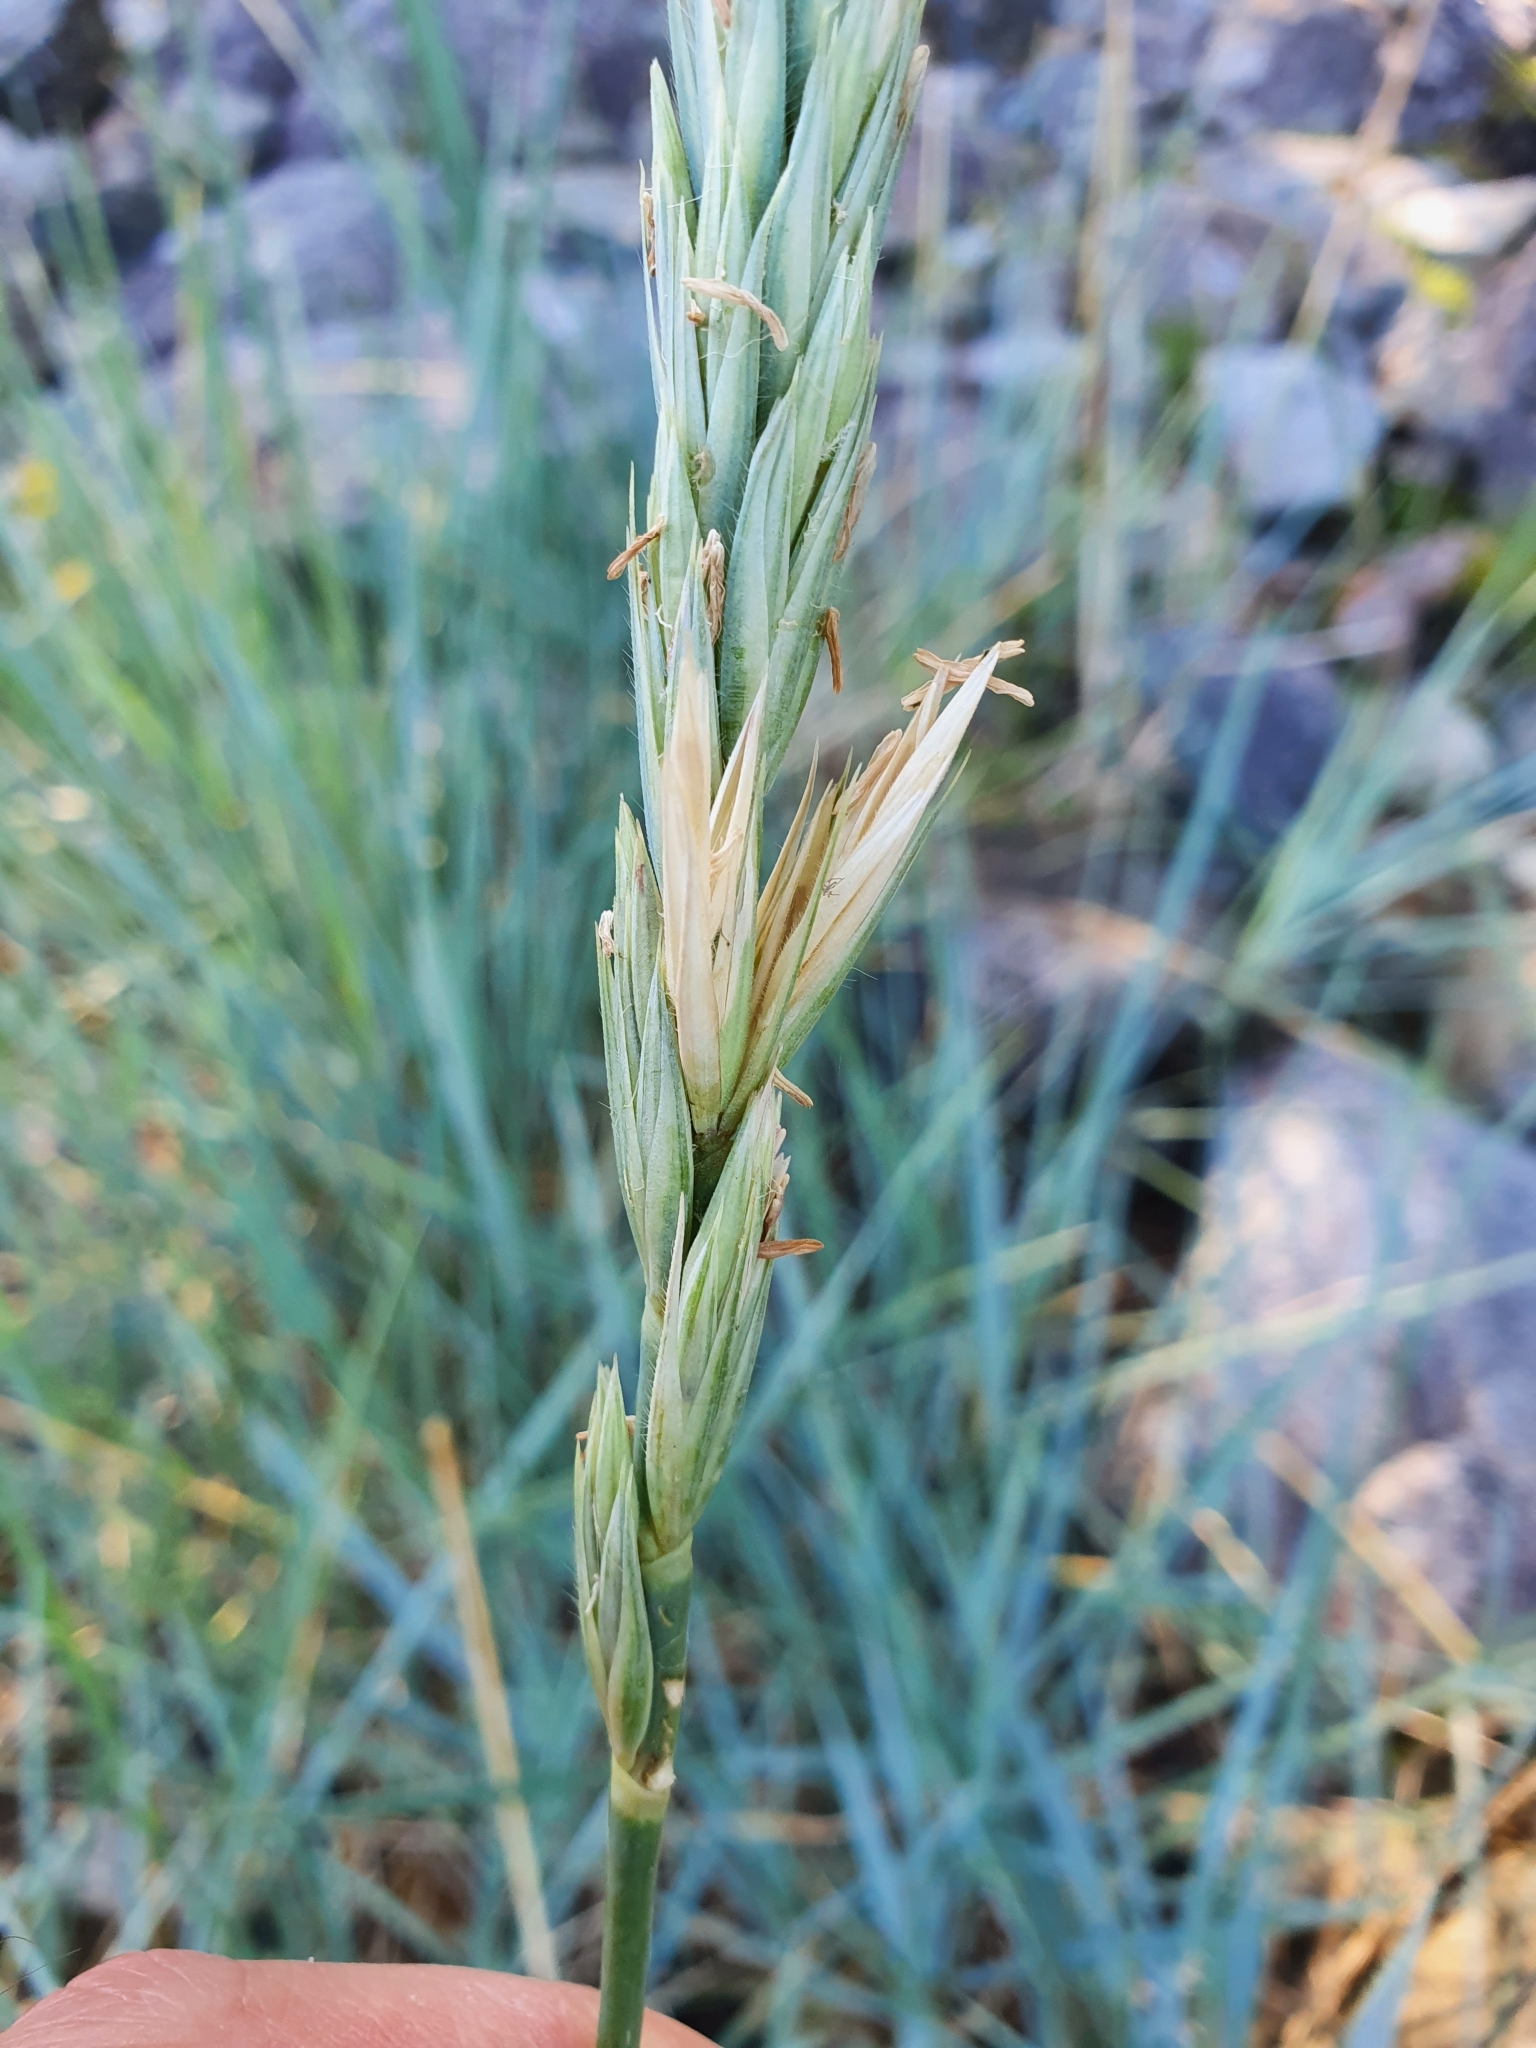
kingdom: Plantae
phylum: Tracheophyta
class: Liliopsida
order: Poales
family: Poaceae
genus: Leymus
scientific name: Leymus arenarius
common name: Lyme-grass
